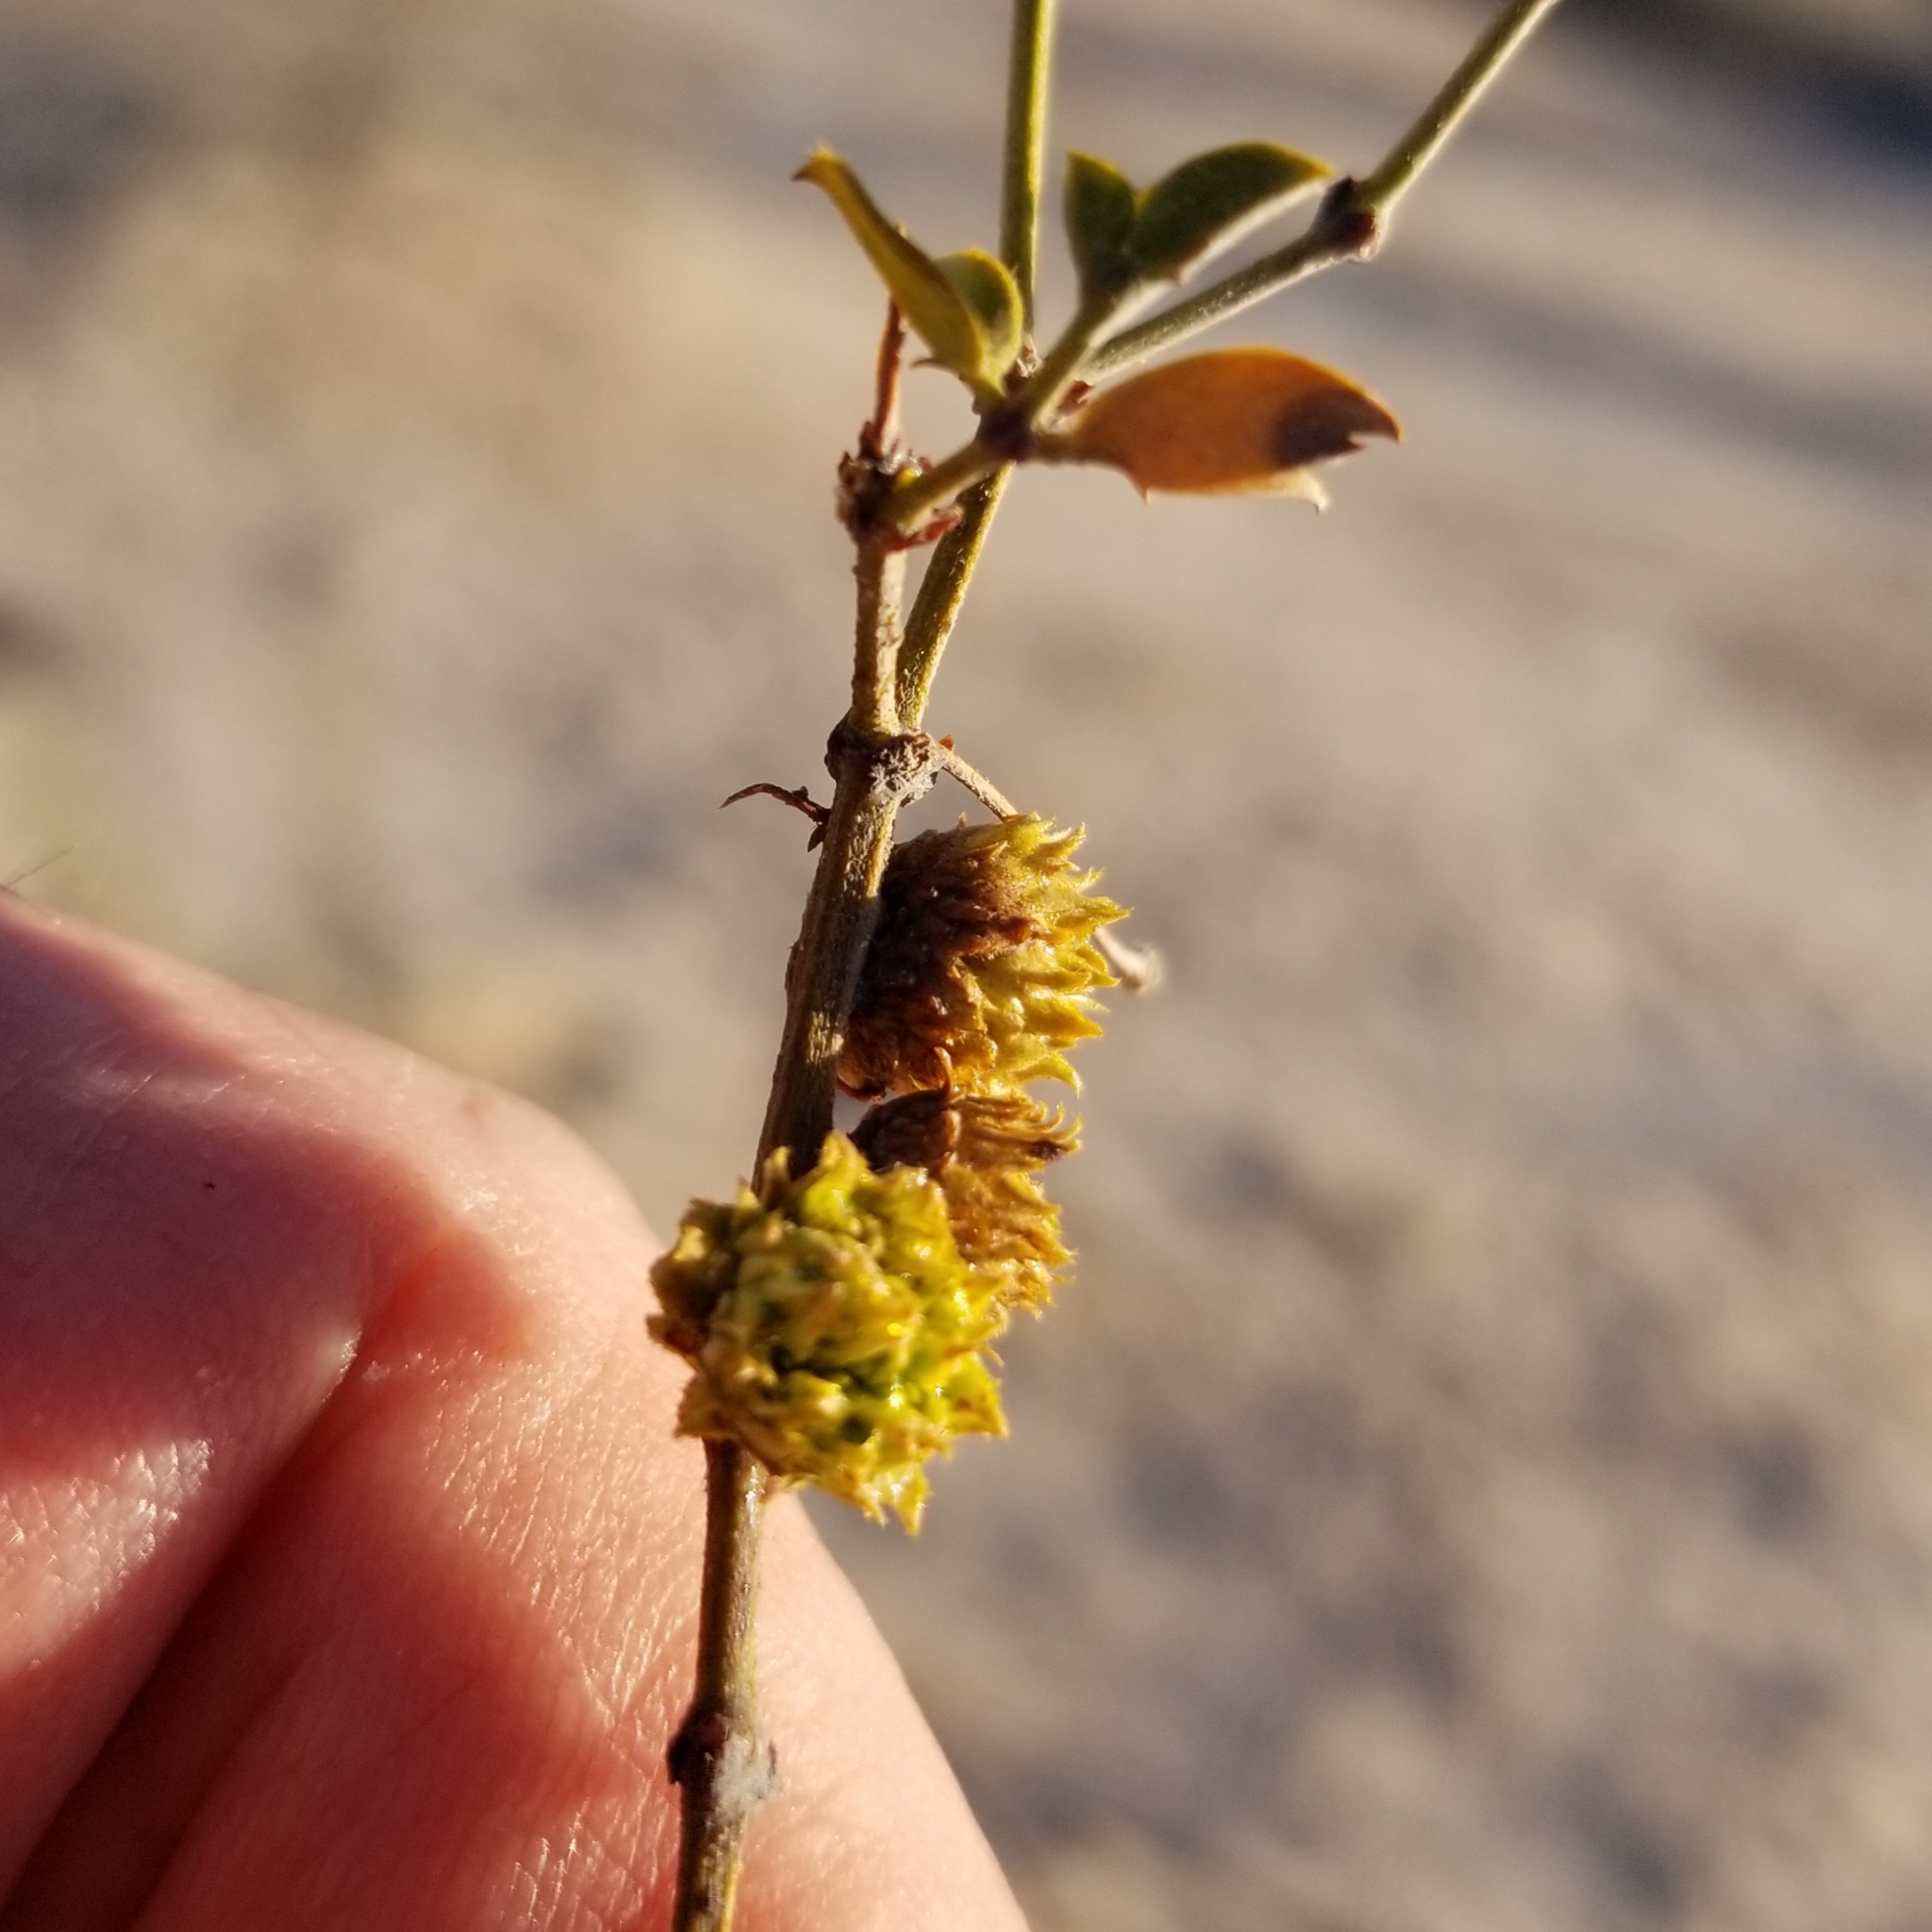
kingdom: Animalia
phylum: Arthropoda
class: Insecta
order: Diptera
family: Cecidomyiidae
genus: Asphondylia
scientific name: Asphondylia foliosa
